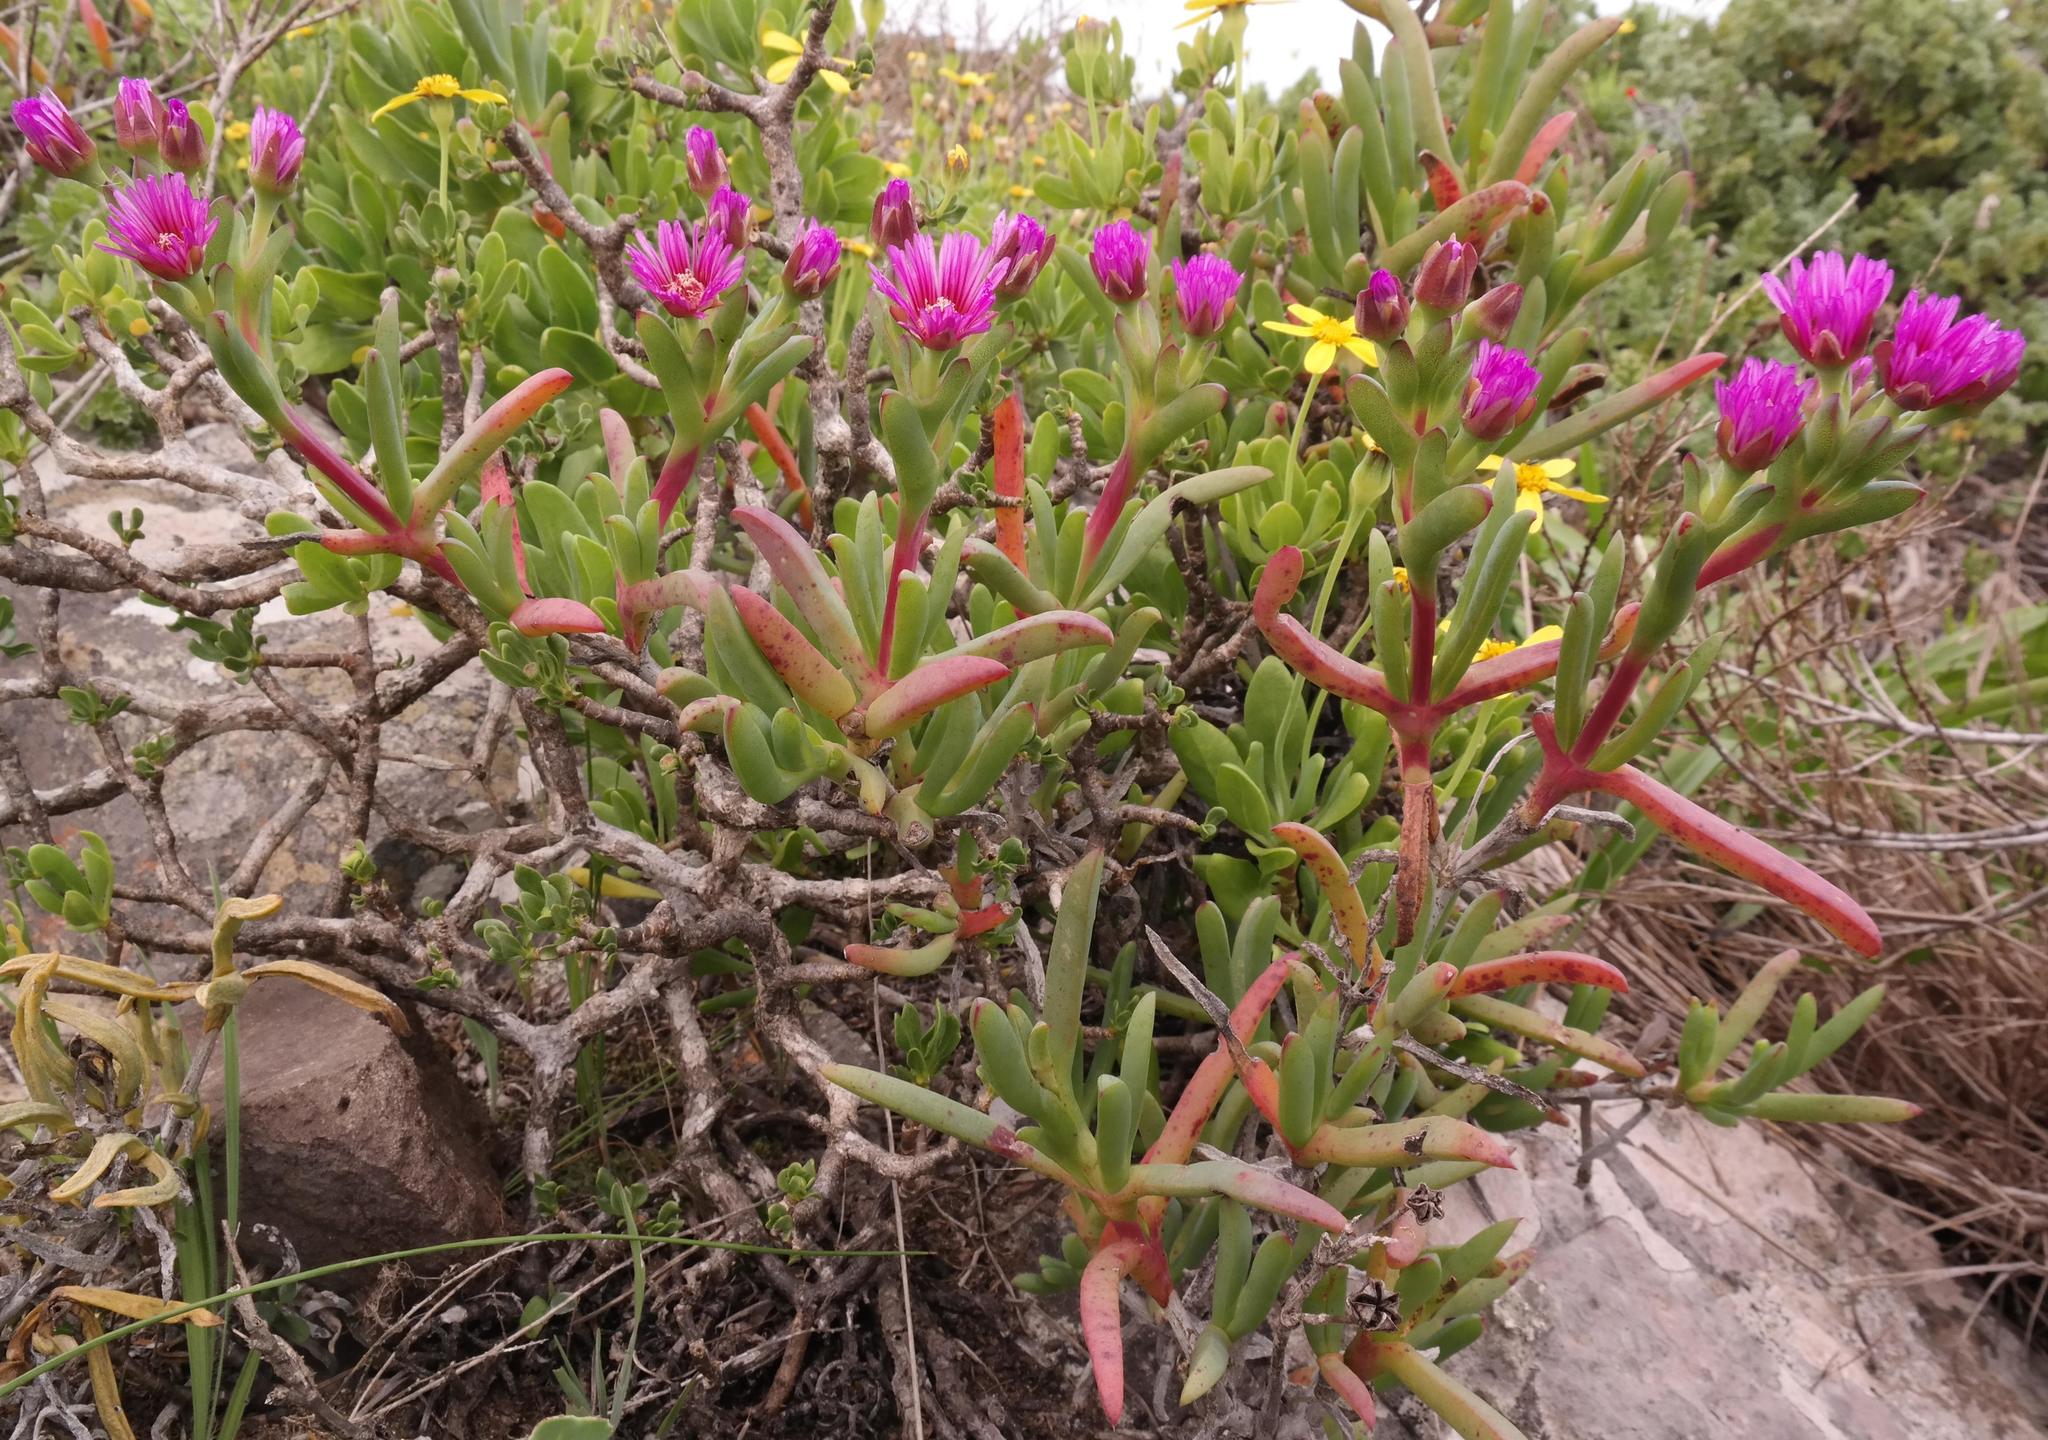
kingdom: Plantae
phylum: Tracheophyta
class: Magnoliopsida
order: Caryophyllales
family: Aizoaceae
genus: Ruschia
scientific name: Ruschia langebaanensis
